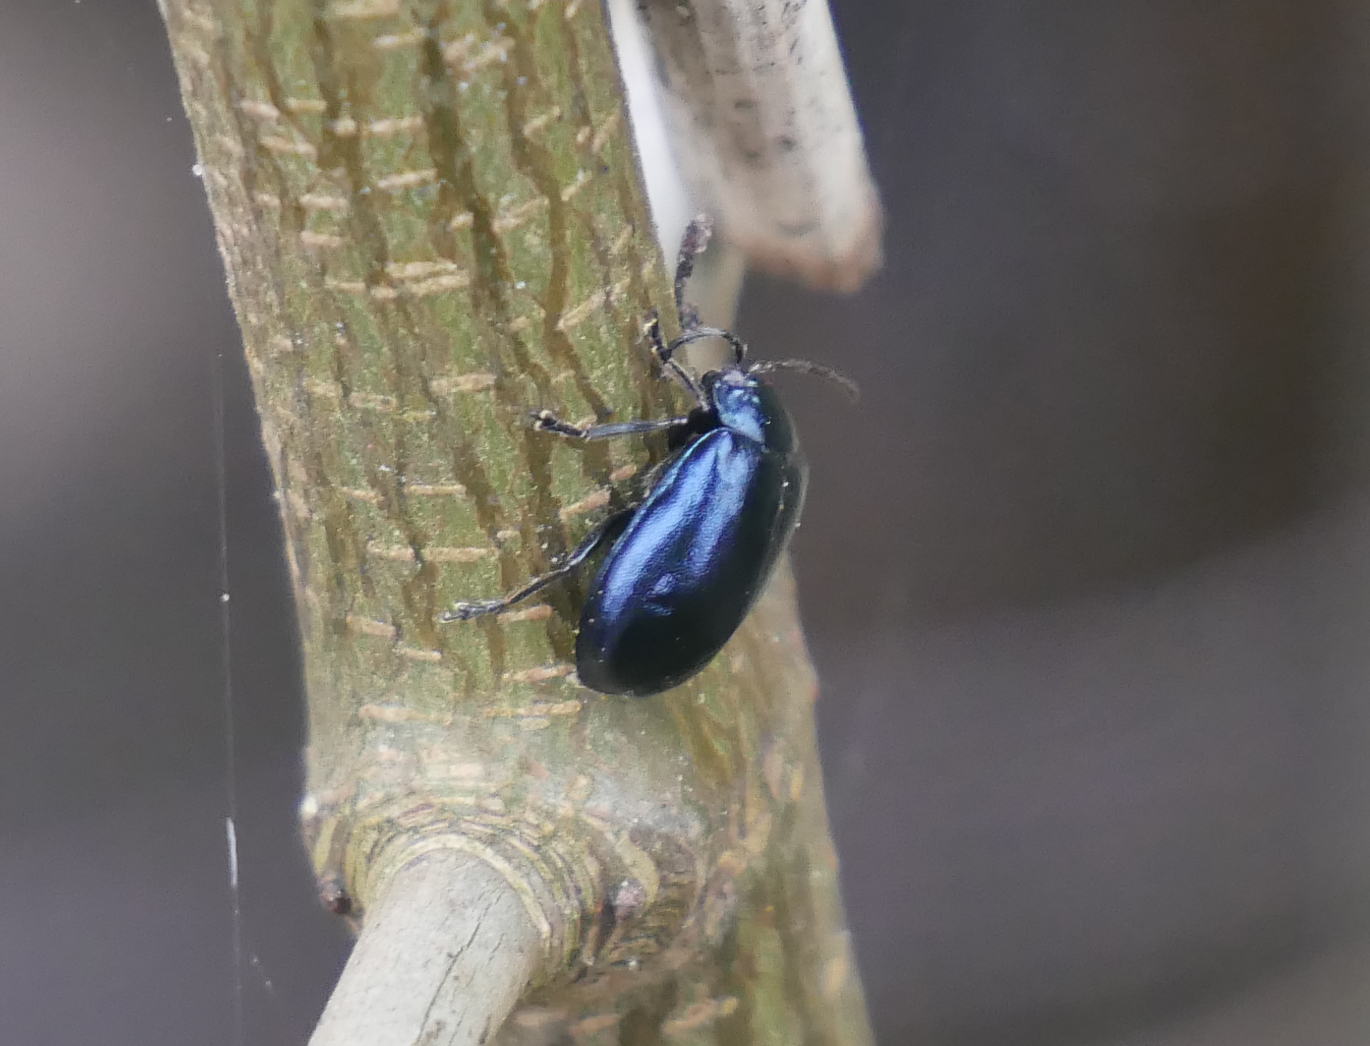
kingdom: Animalia
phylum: Arthropoda
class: Insecta
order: Coleoptera
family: Chrysomelidae
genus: Agelastica
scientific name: Agelastica alni
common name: Alder leaf beetle
